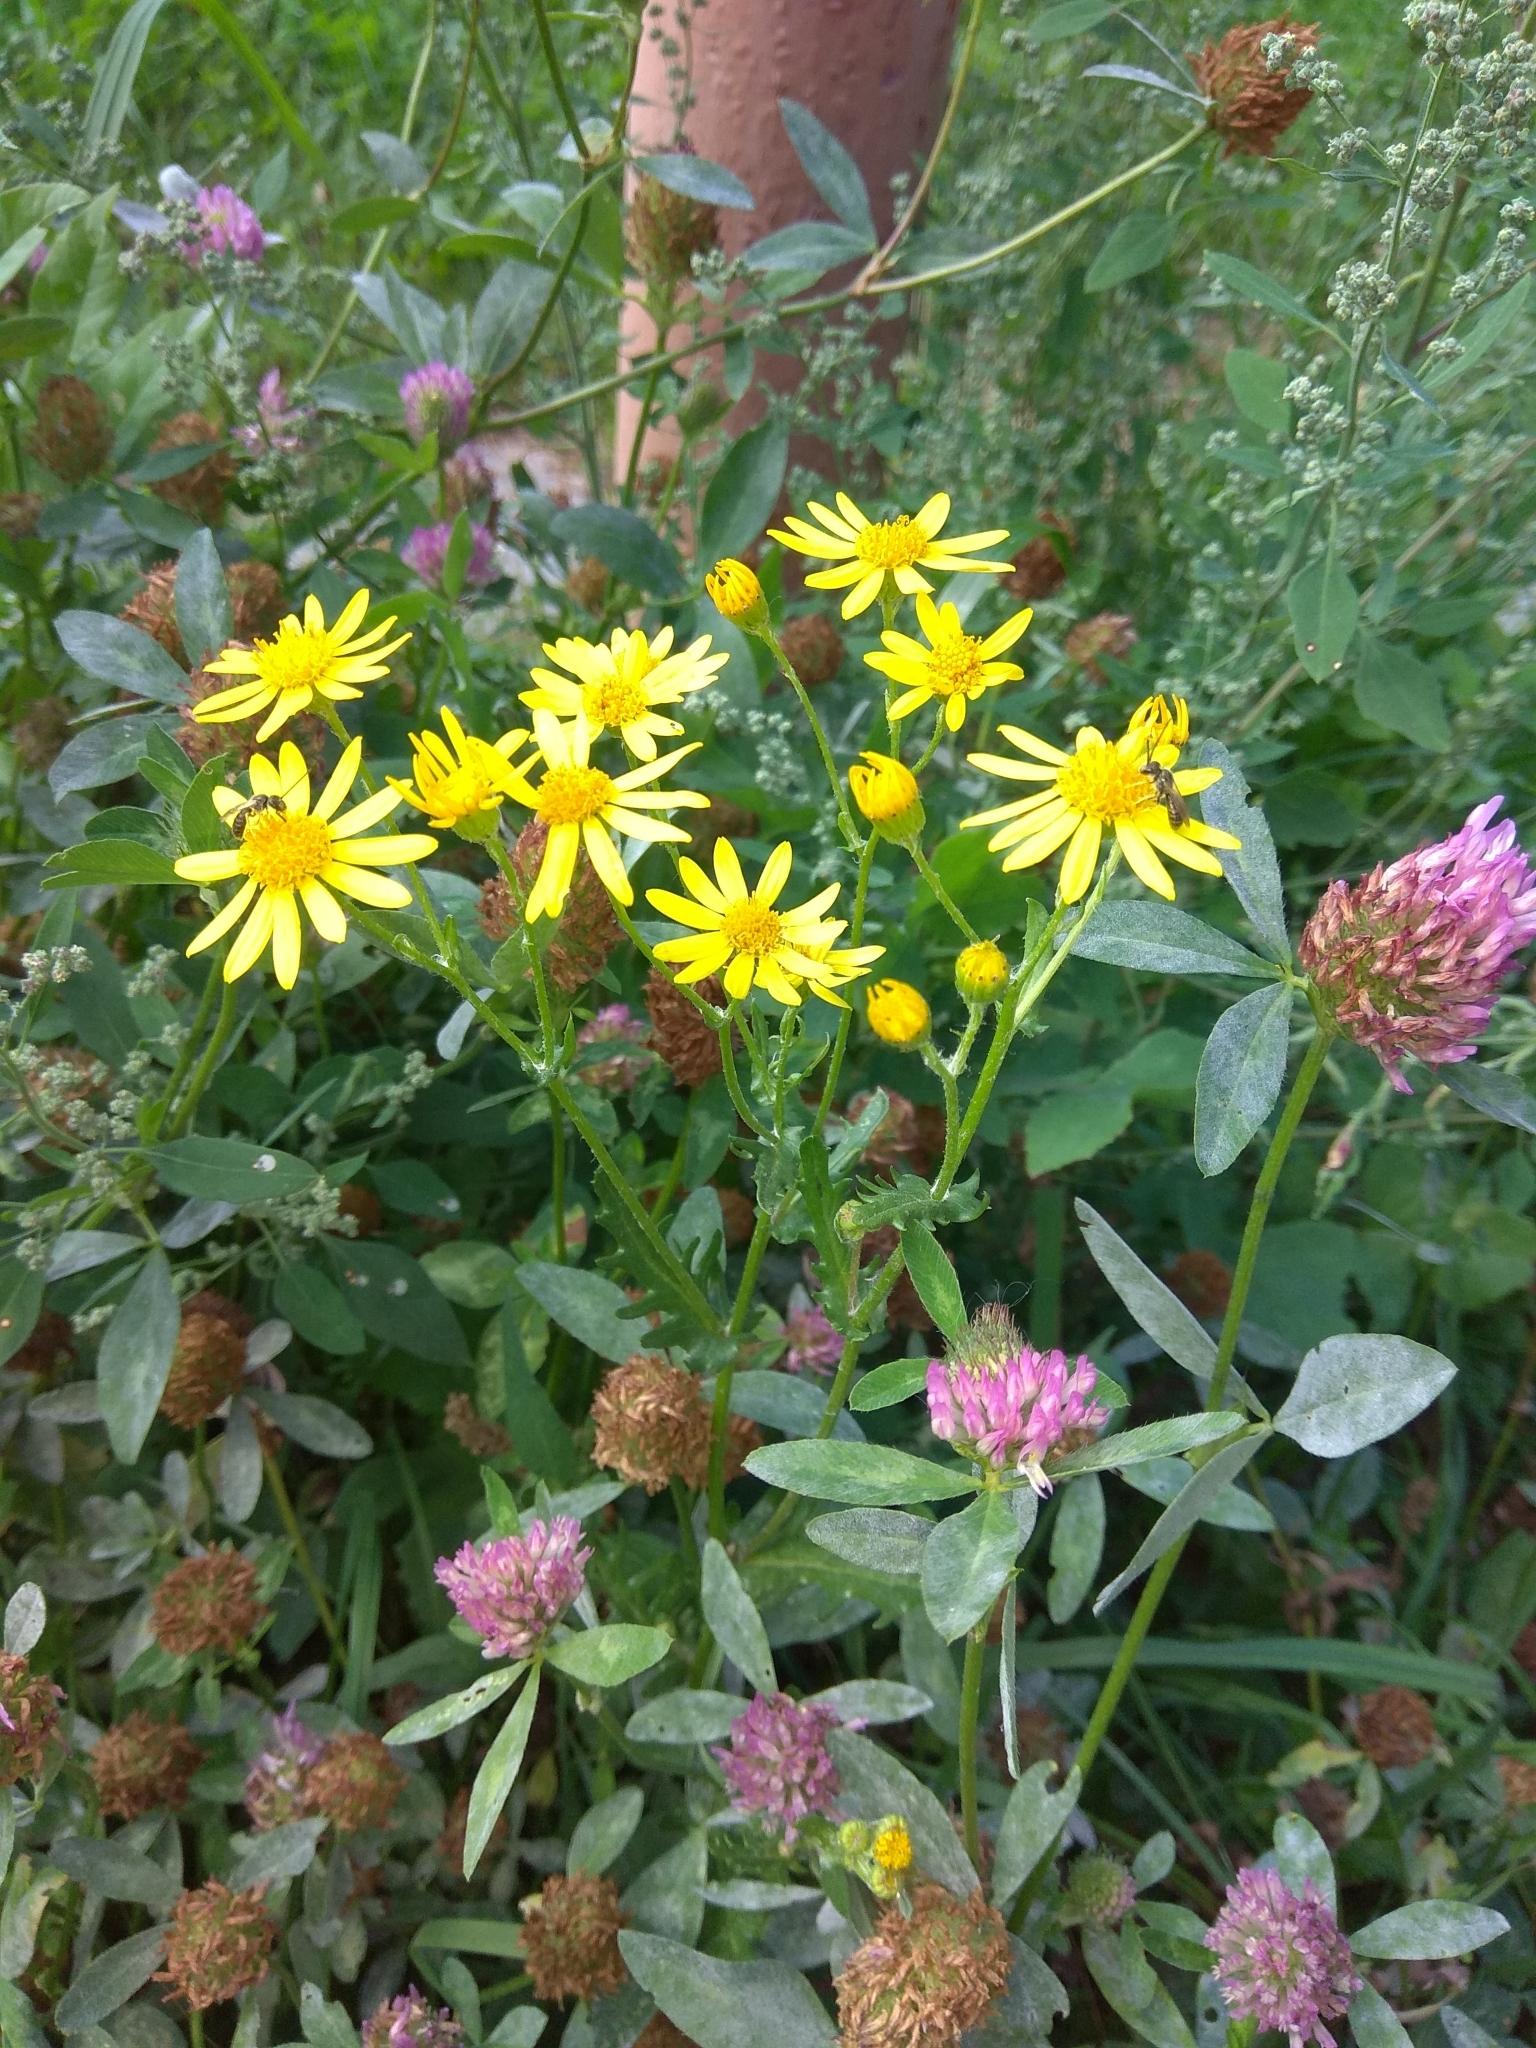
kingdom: Plantae
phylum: Tracheophyta
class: Magnoliopsida
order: Asterales
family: Asteraceae
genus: Jacobaea
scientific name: Jacobaea vulgaris
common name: Stinking willie
